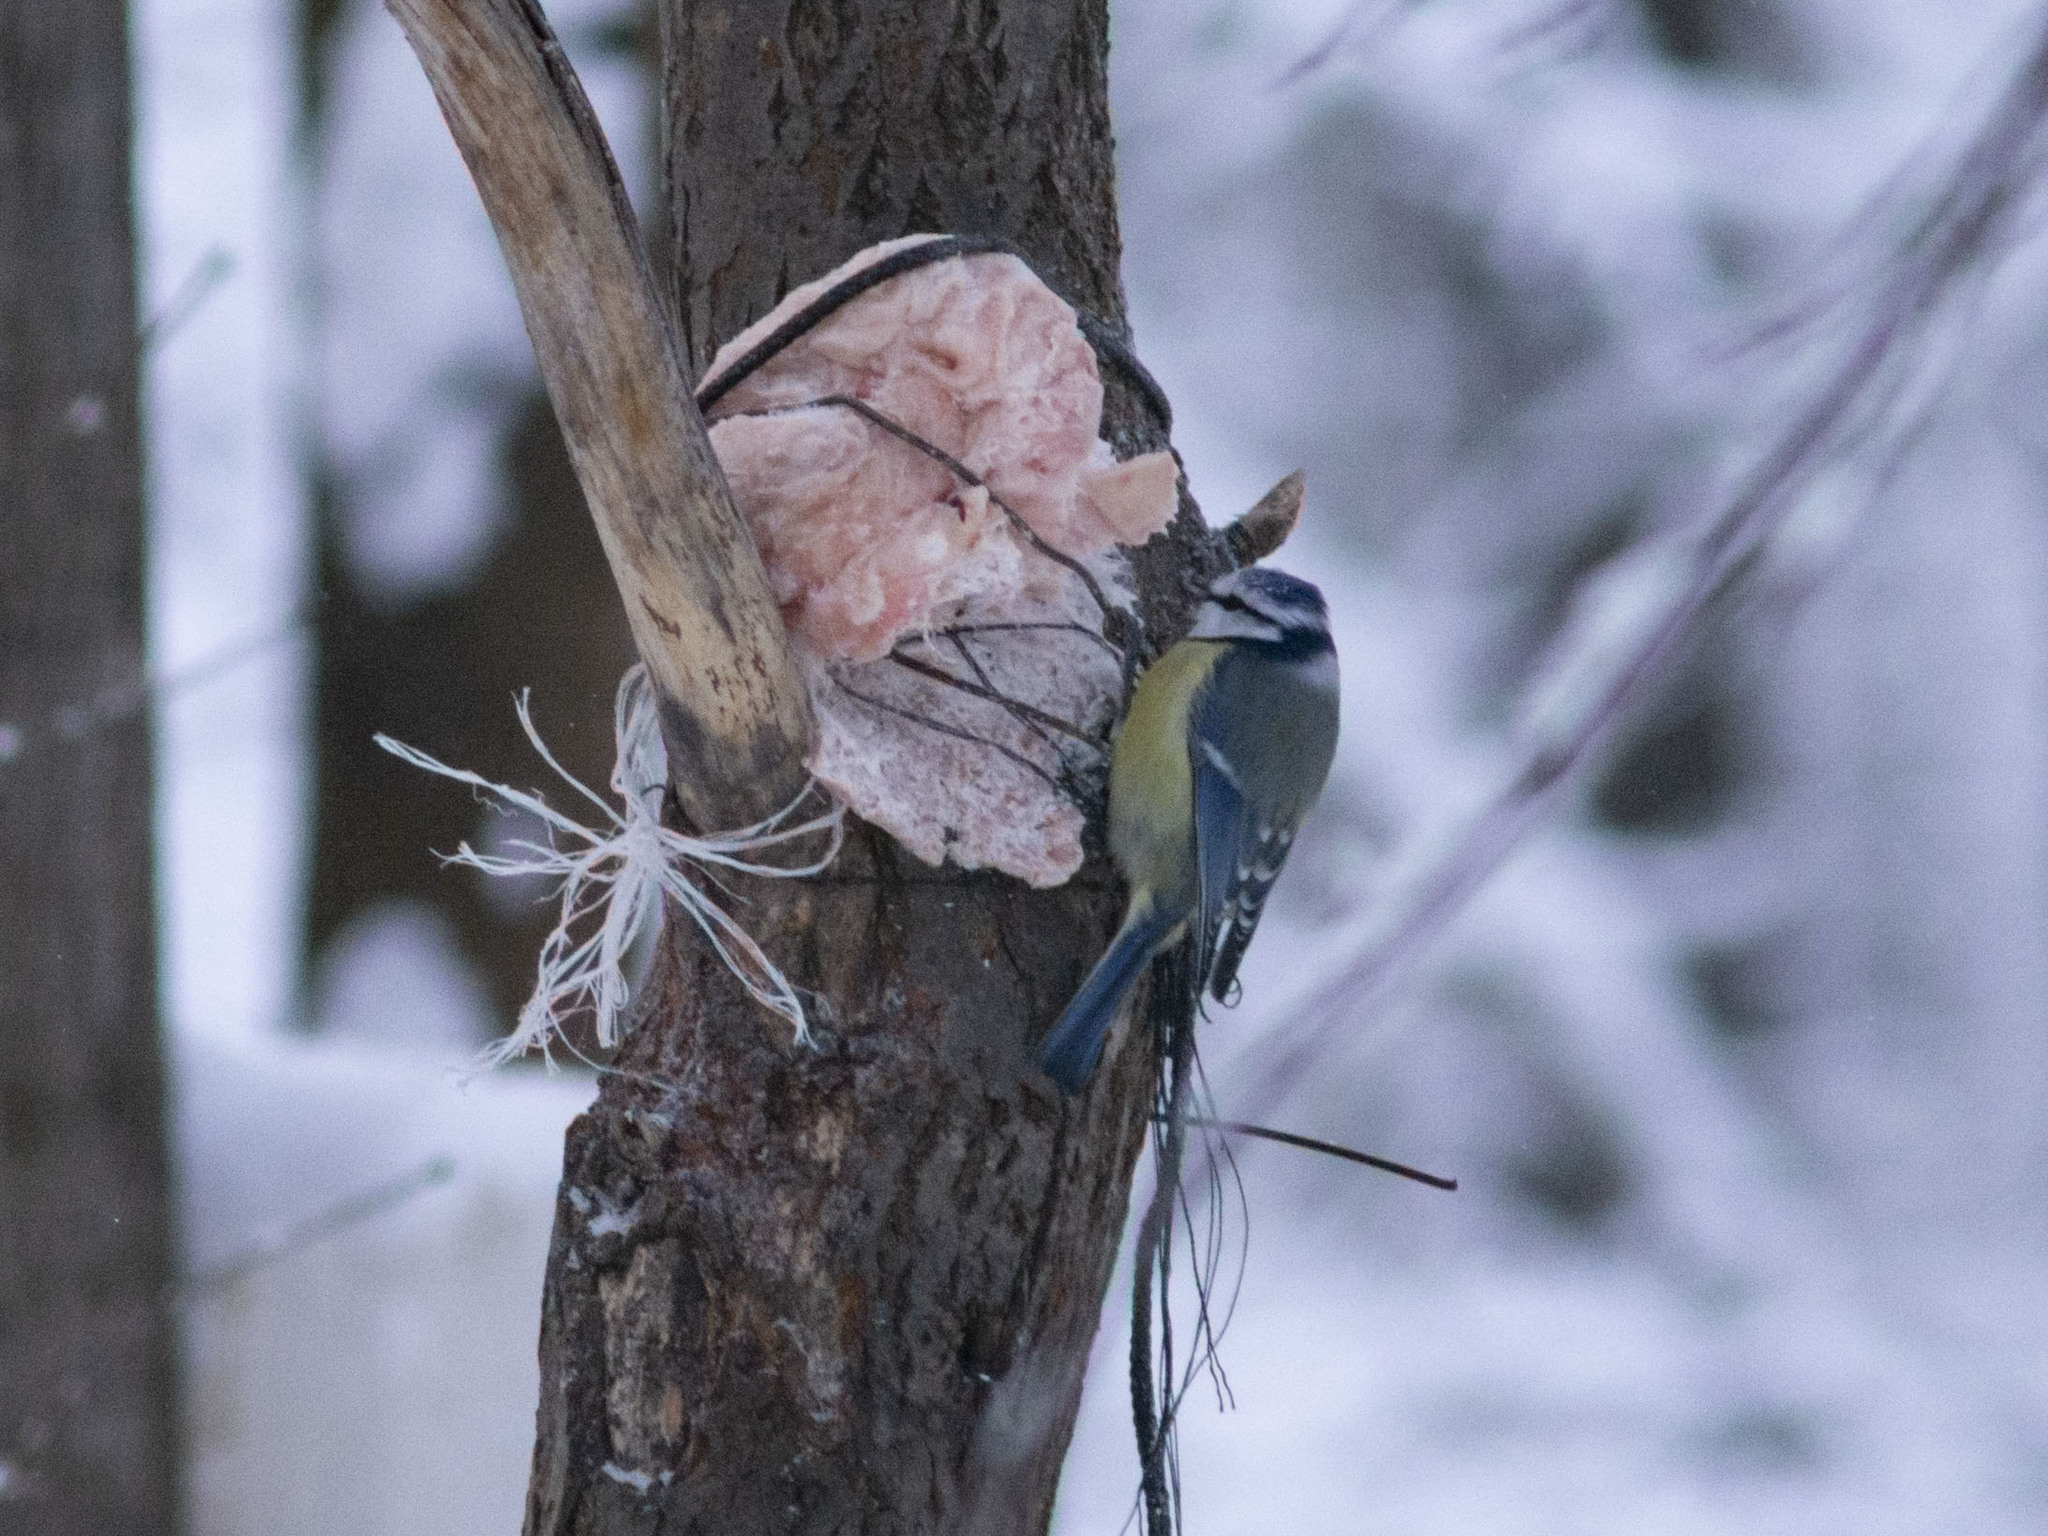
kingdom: Animalia
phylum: Chordata
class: Aves
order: Passeriformes
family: Paridae
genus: Cyanistes
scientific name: Cyanistes caeruleus
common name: Eurasian blue tit
